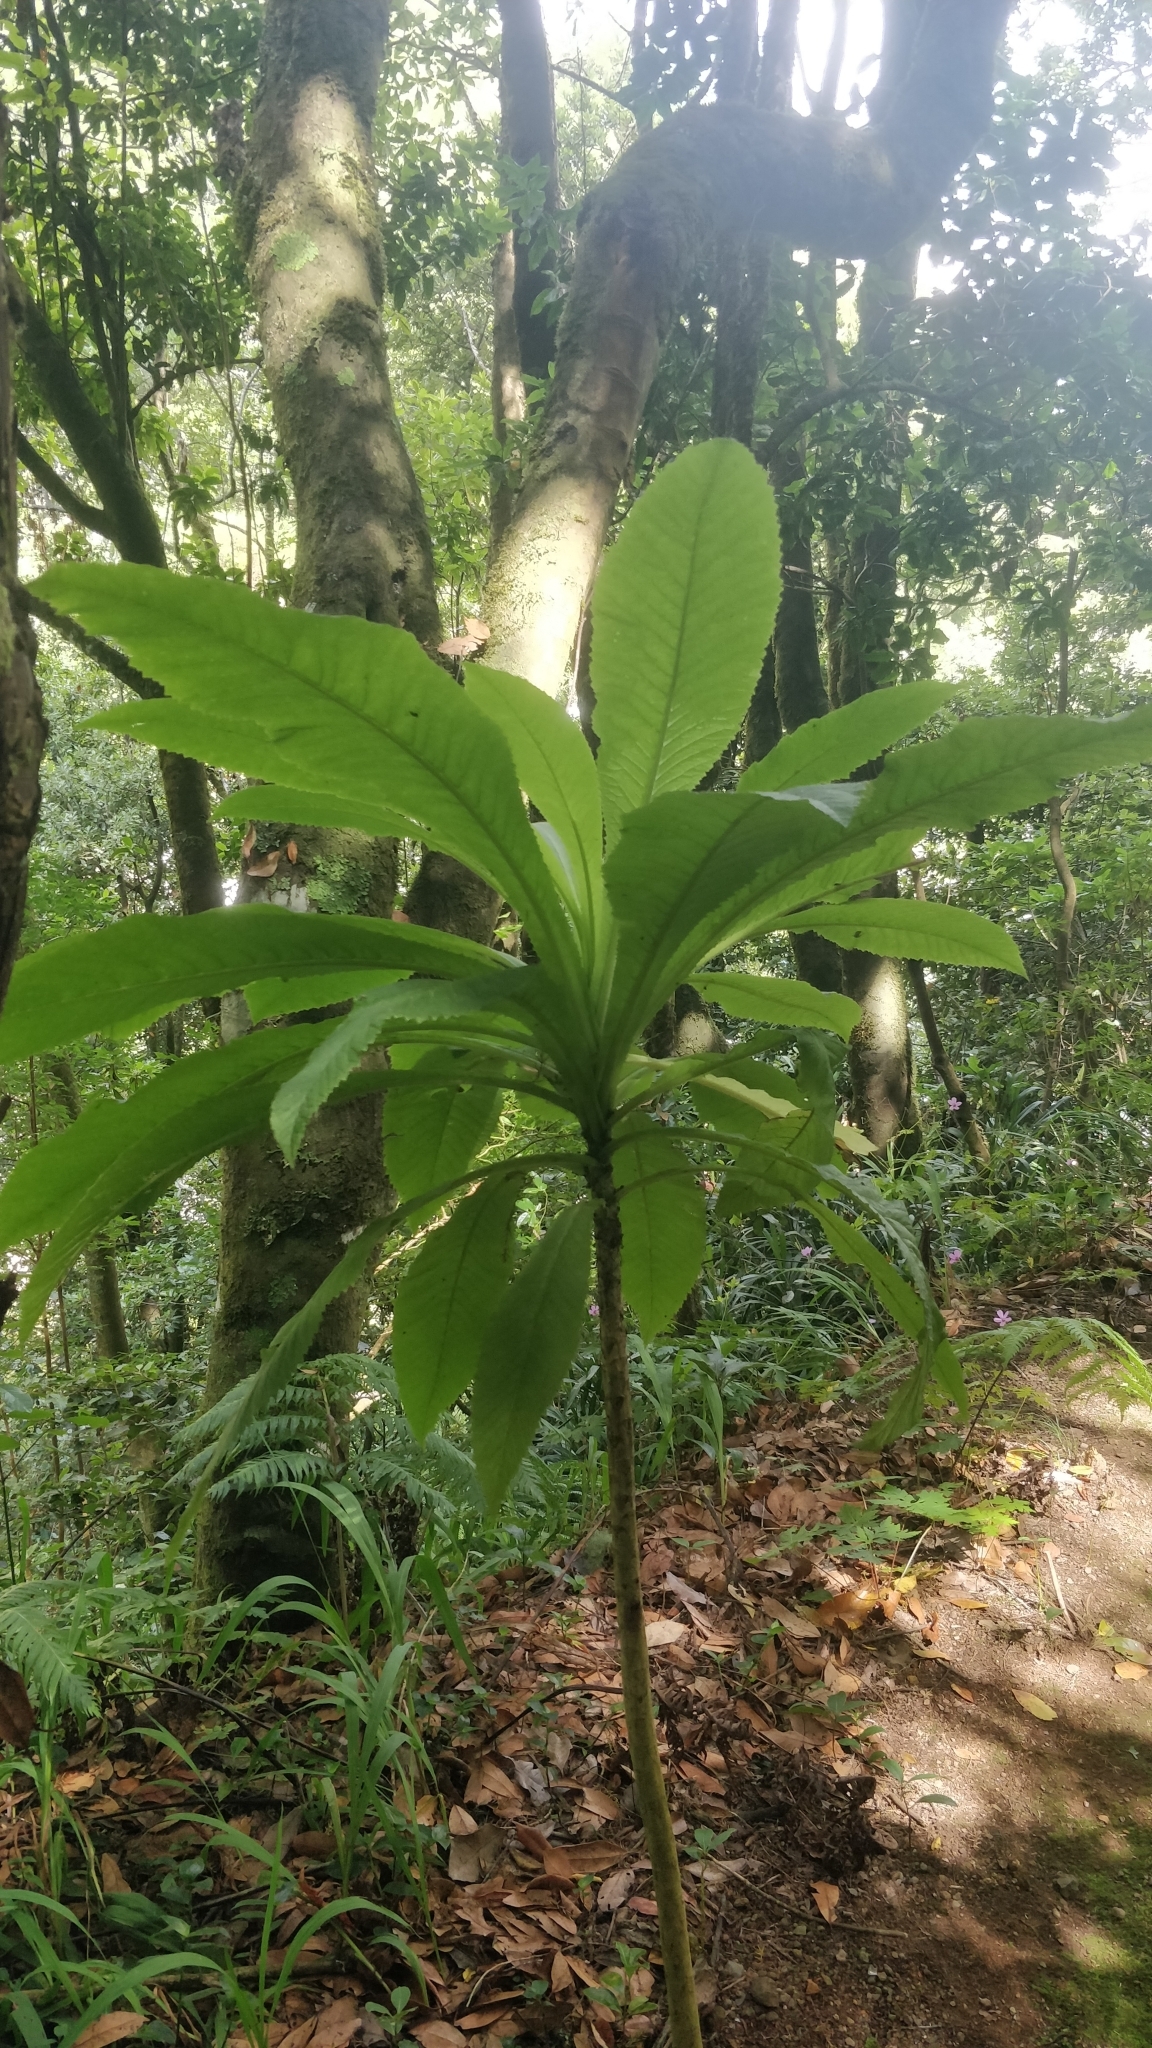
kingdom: Plantae
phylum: Tracheophyta
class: Magnoliopsida
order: Asterales
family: Campanulaceae
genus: Musschia
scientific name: Musschia wollastonii
